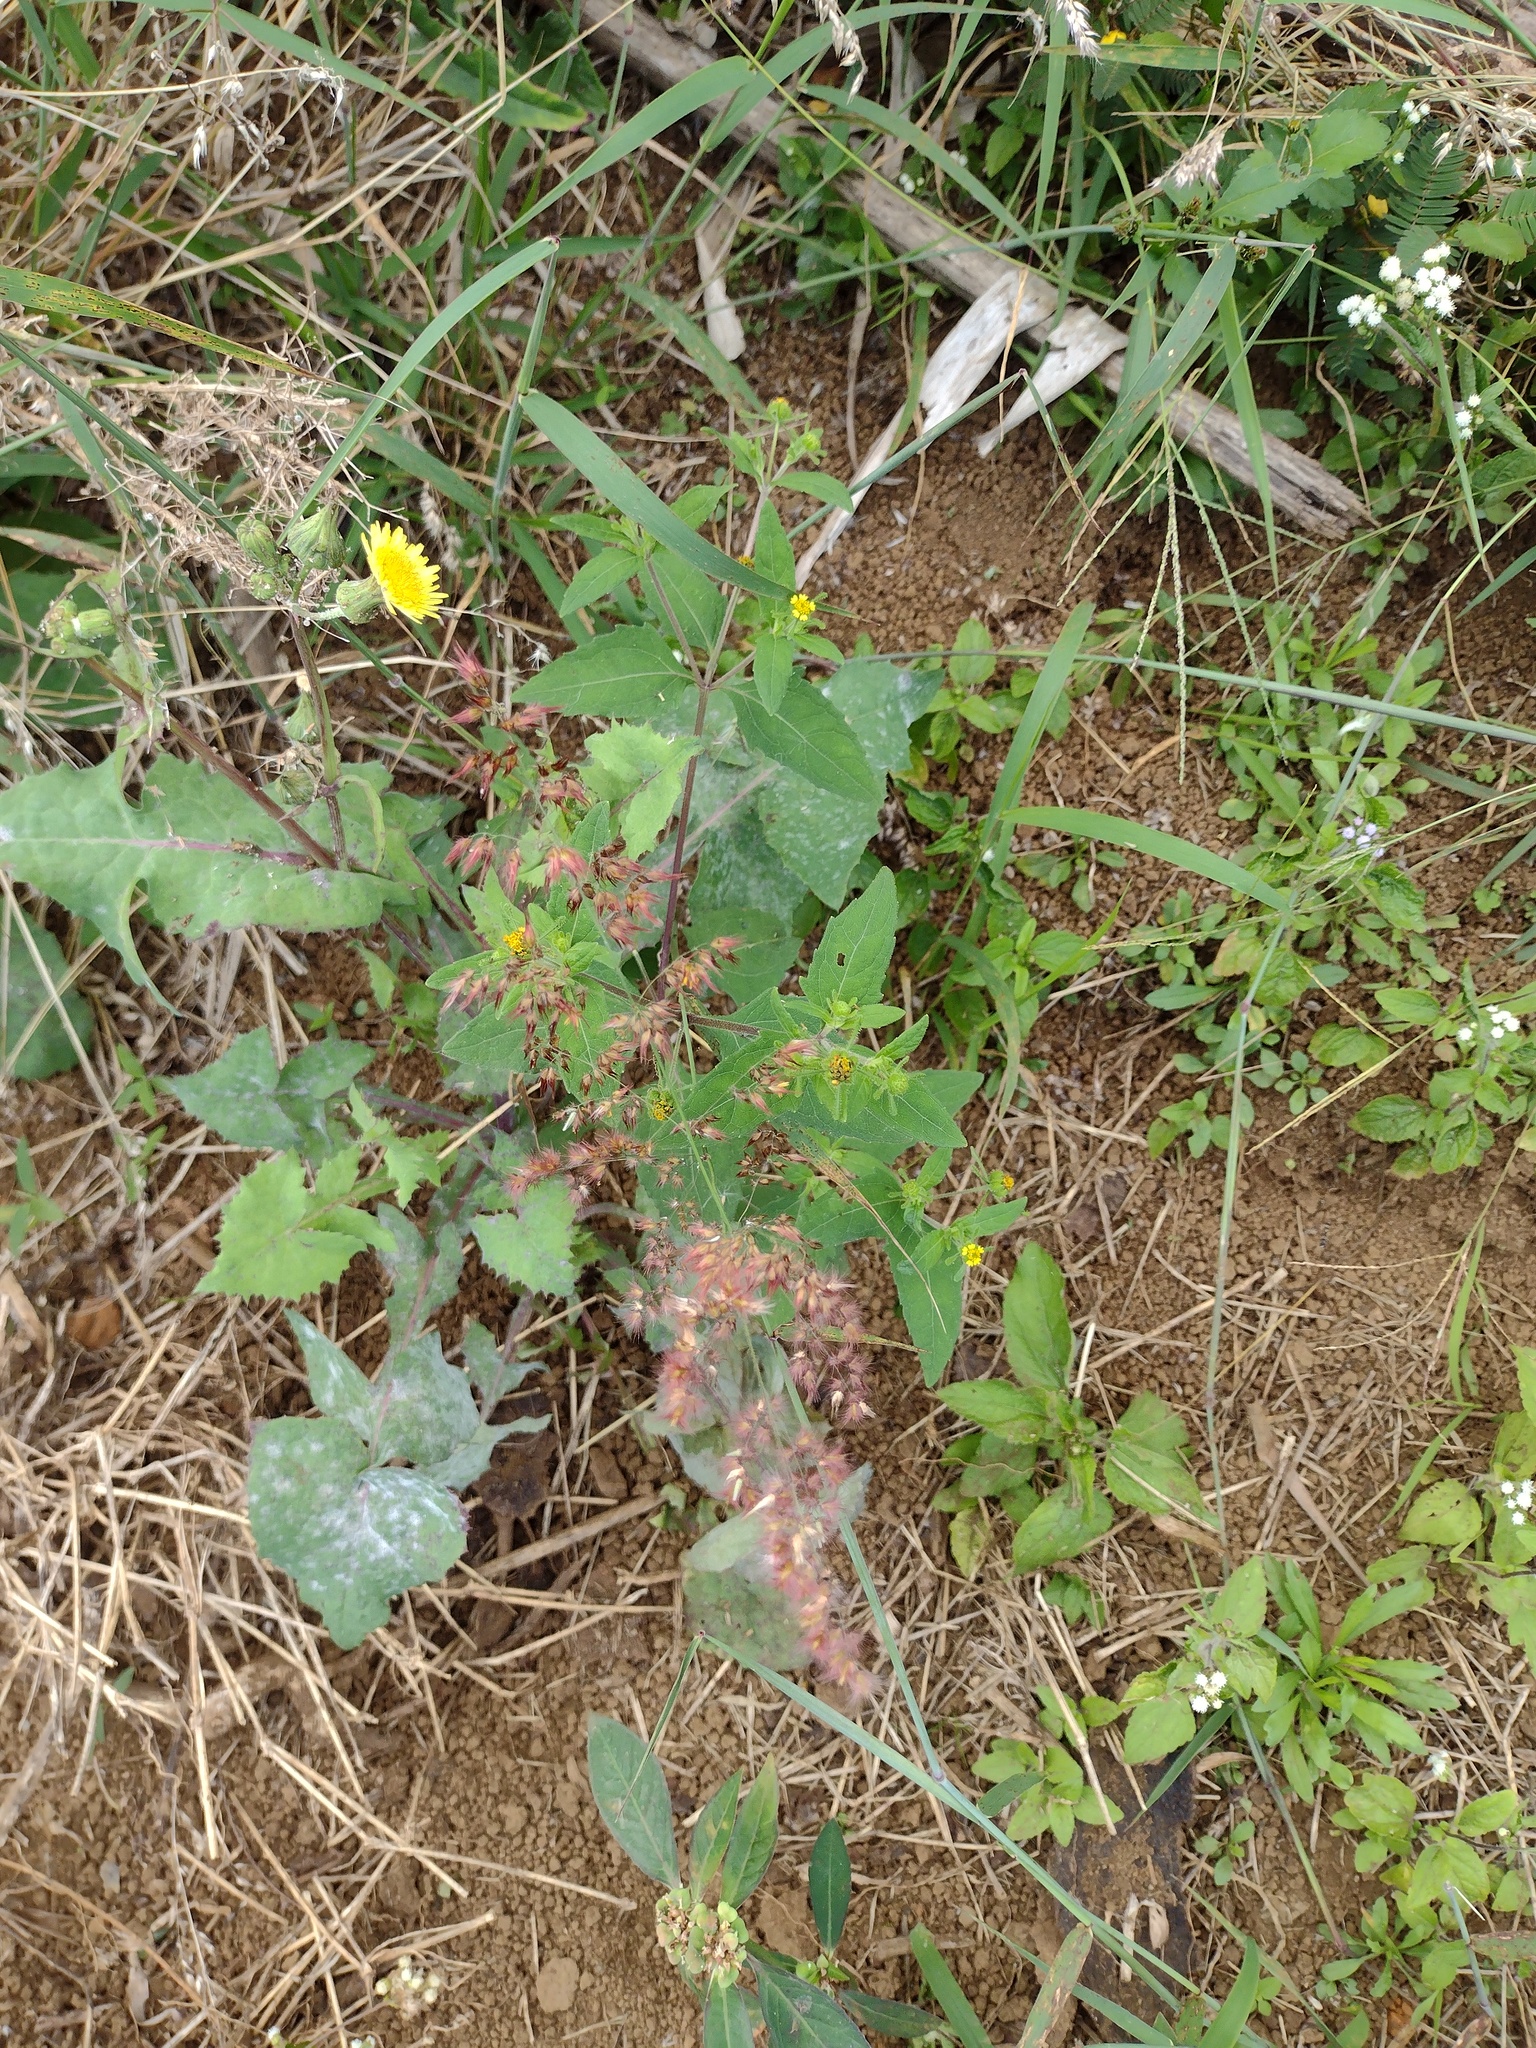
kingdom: Plantae
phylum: Tracheophyta
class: Liliopsida
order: Poales
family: Poaceae
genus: Melinis
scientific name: Melinis repens
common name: Rose natal grass
